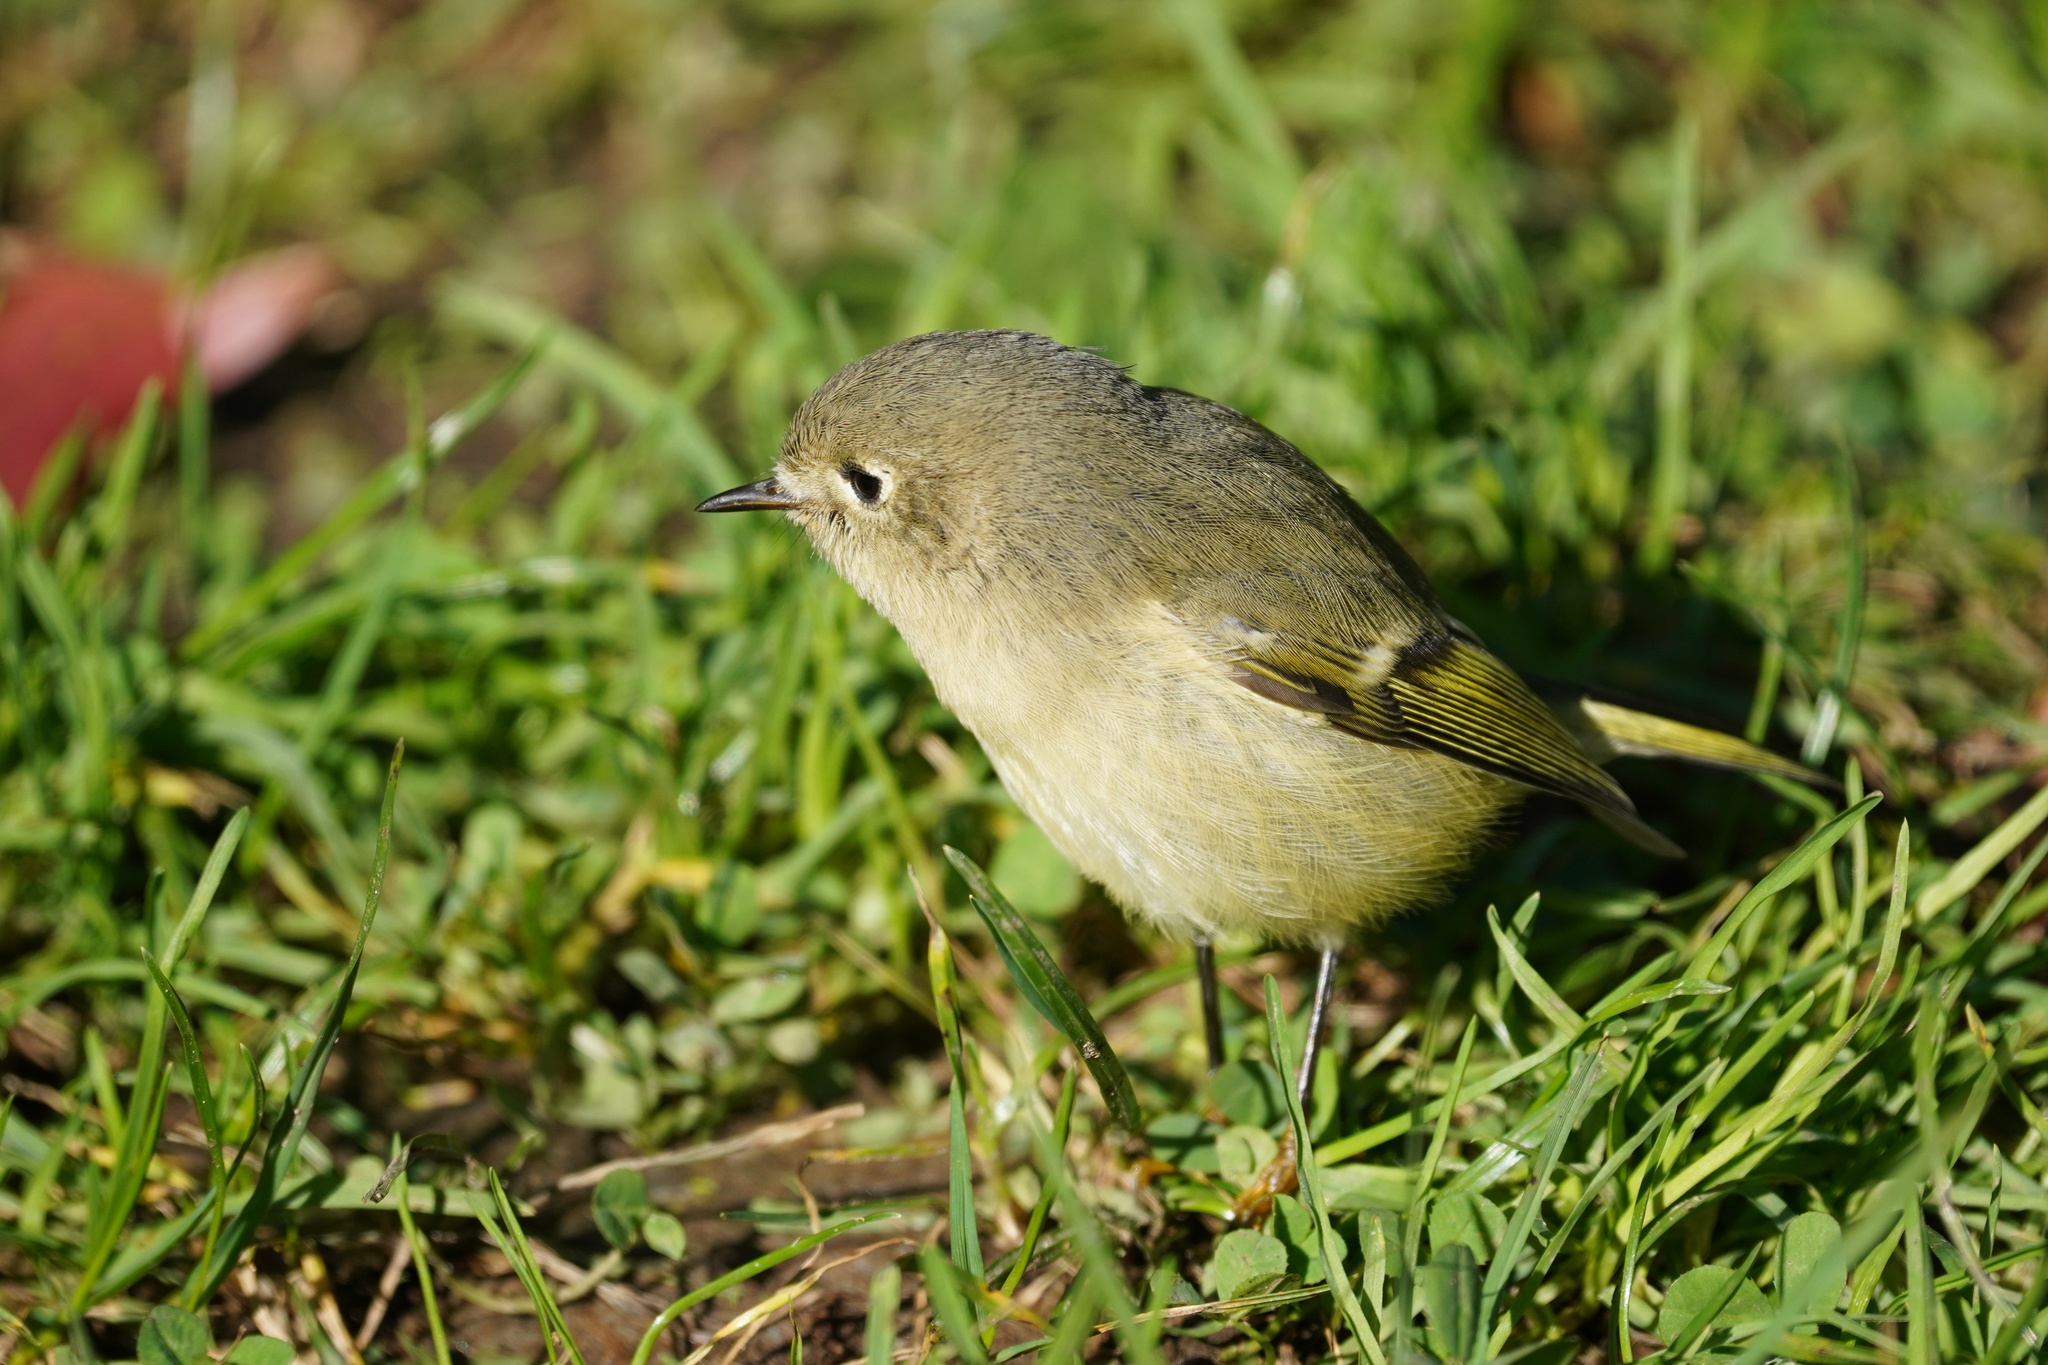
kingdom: Animalia
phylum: Chordata
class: Aves
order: Passeriformes
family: Regulidae
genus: Regulus
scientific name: Regulus calendula
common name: Ruby-crowned kinglet
